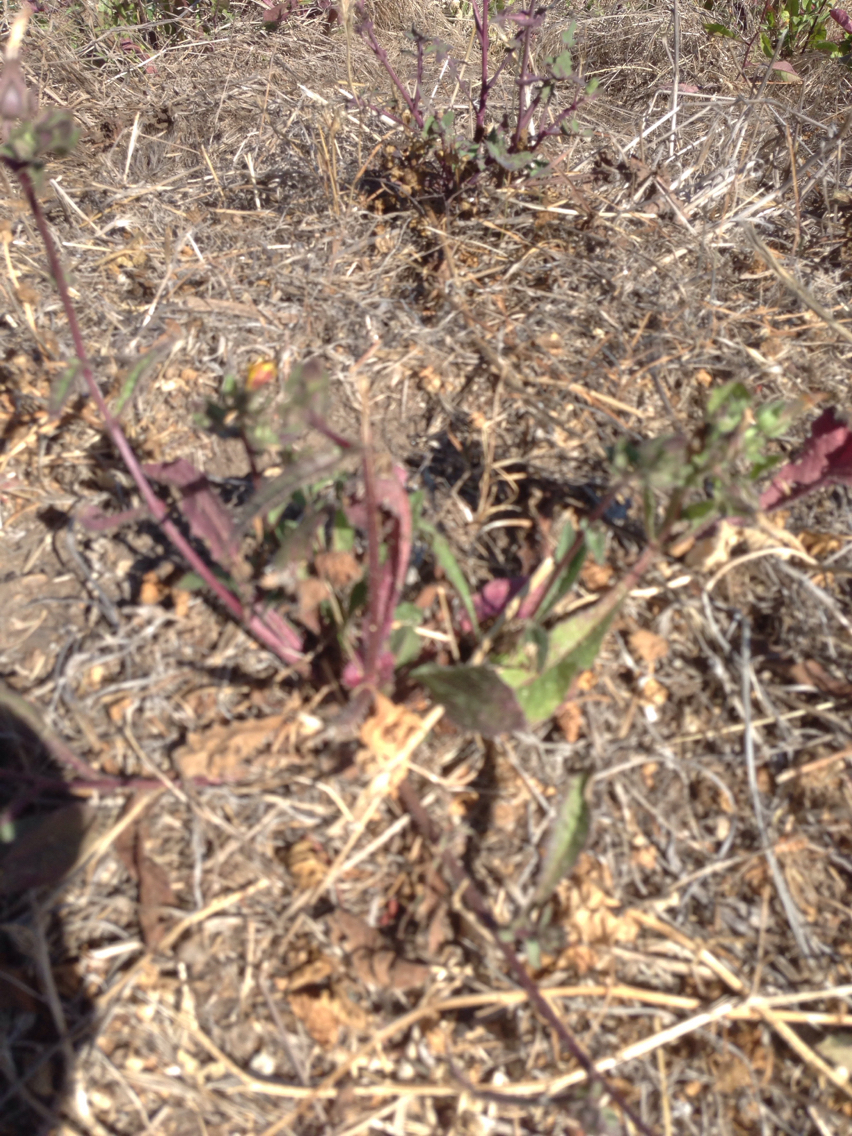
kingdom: Plantae
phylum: Tracheophyta
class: Magnoliopsida
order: Asterales
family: Asteraceae
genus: Helminthotheca
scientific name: Helminthotheca echioides
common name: Ox-tongue
